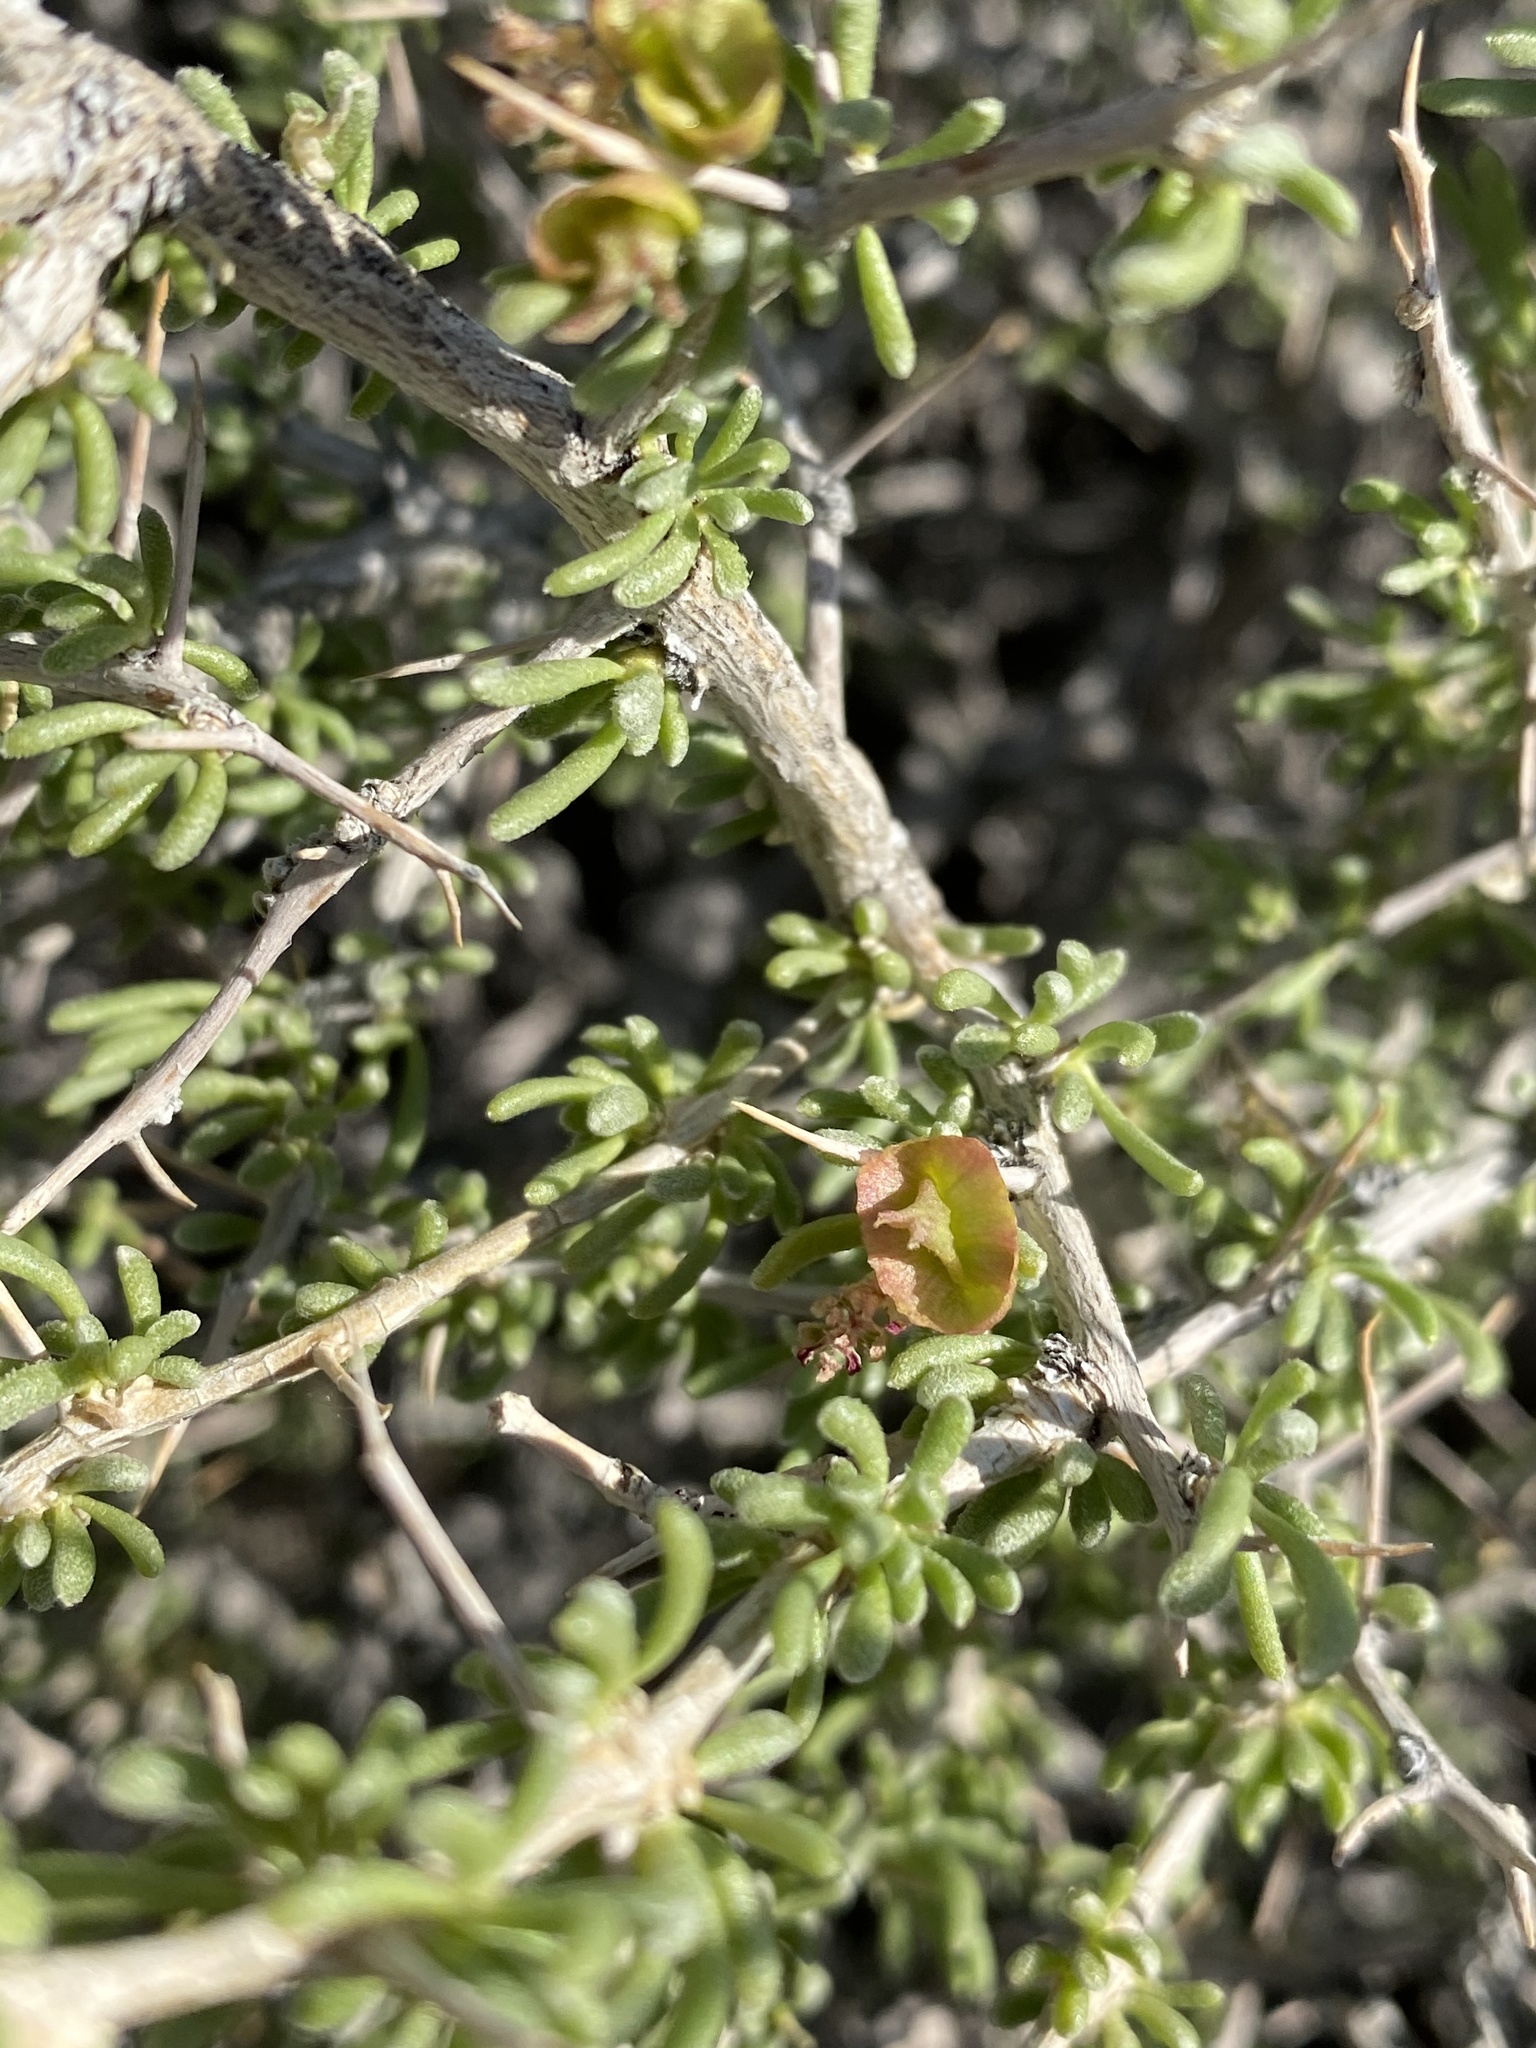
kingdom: Plantae
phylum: Tracheophyta
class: Magnoliopsida
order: Caryophyllales
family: Sarcobataceae
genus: Sarcobatus
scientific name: Sarcobatus baileyi
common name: Bailey greasewood
